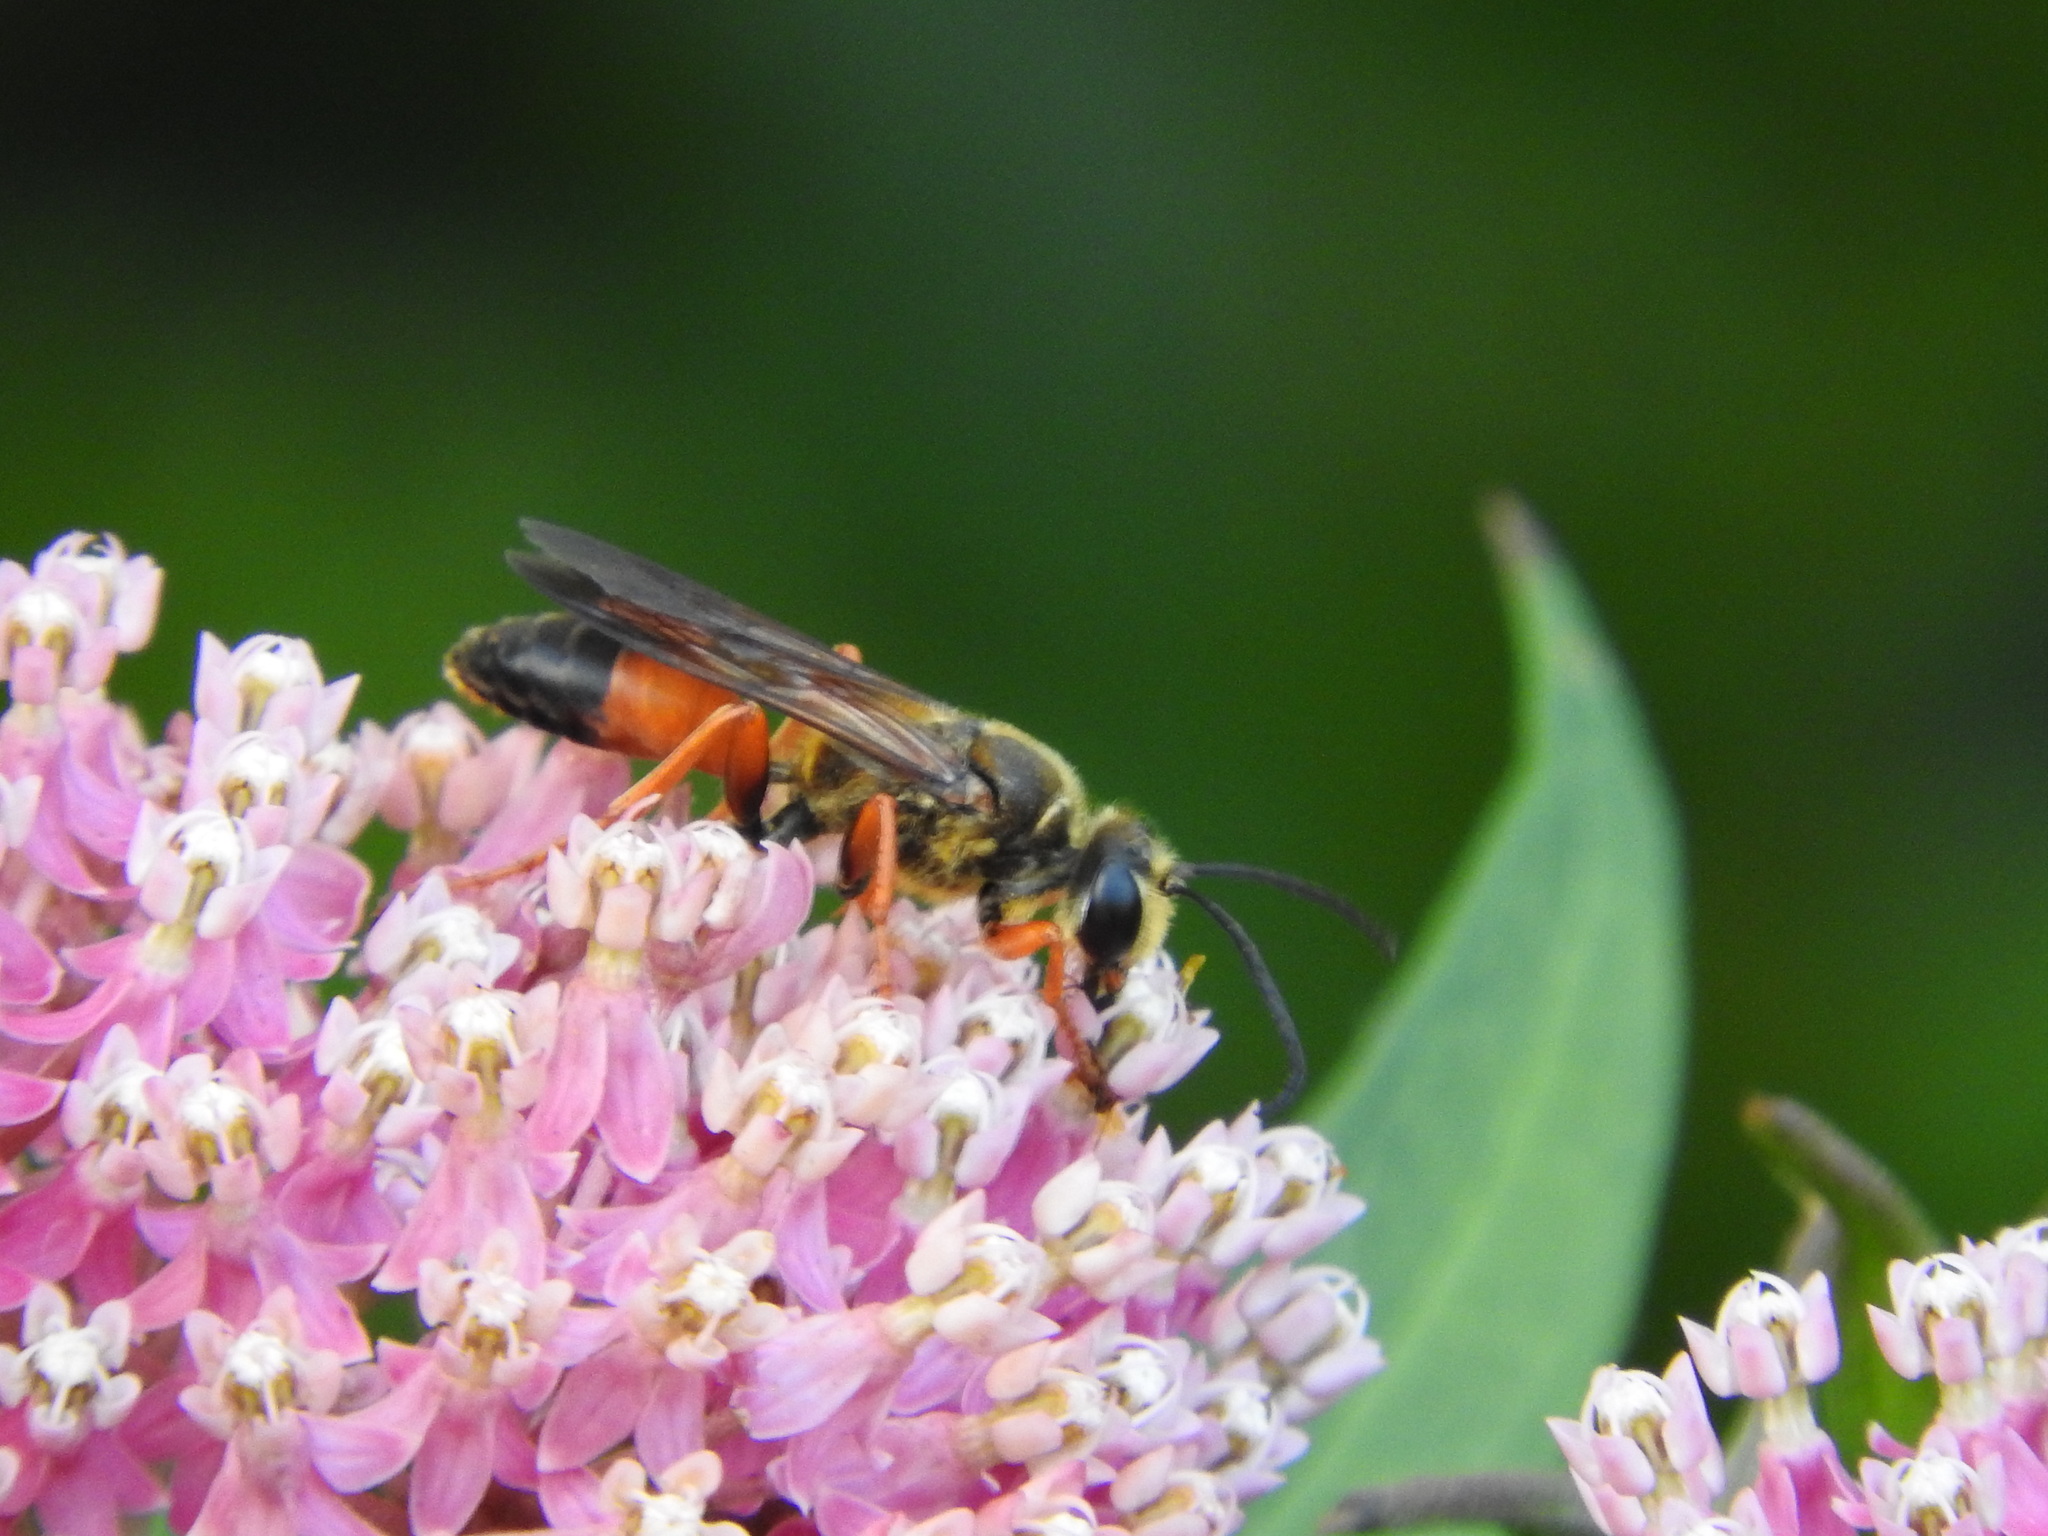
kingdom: Animalia
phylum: Arthropoda
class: Insecta
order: Hymenoptera
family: Sphecidae
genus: Sphex
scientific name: Sphex ichneumoneus
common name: Great golden digger wasp
